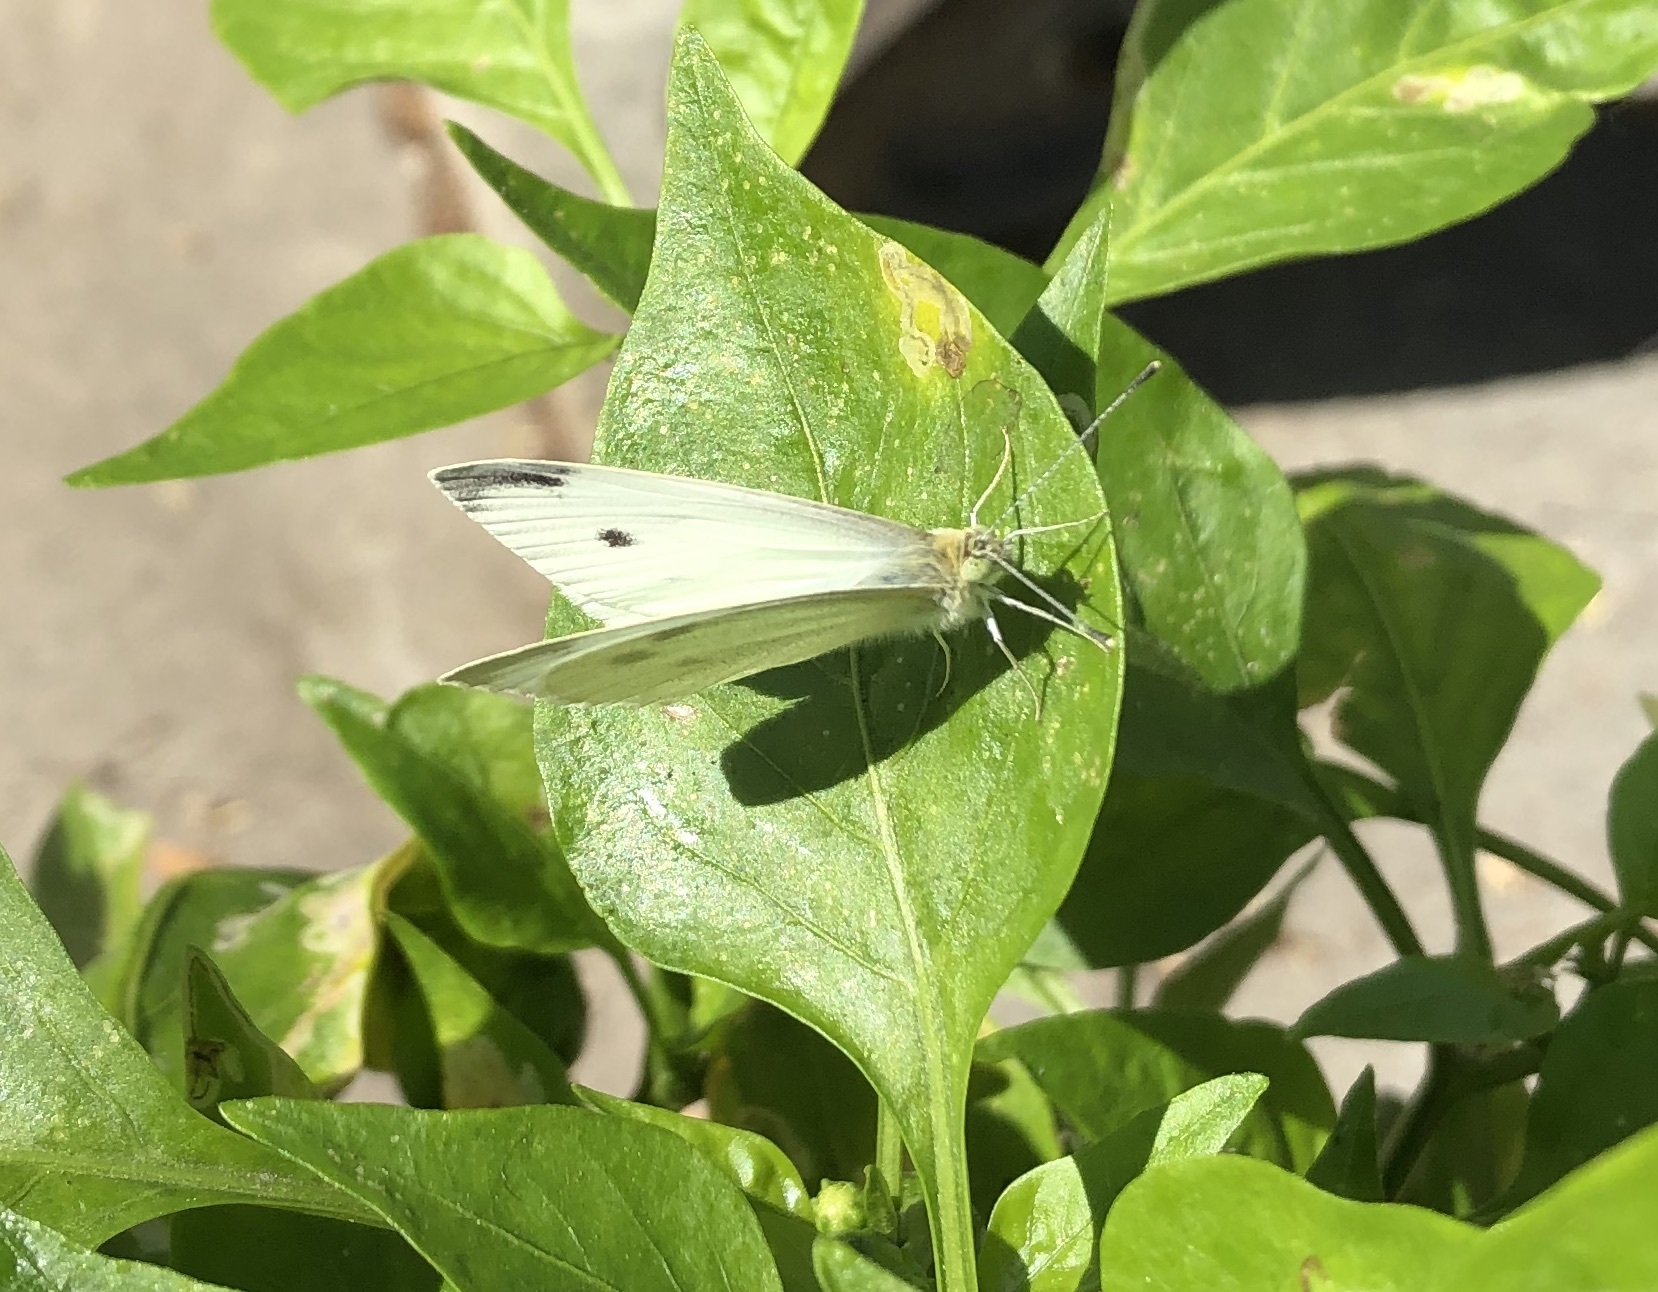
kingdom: Animalia
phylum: Arthropoda
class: Insecta
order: Lepidoptera
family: Pieridae
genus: Pieris
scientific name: Pieris rapae
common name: Small white
